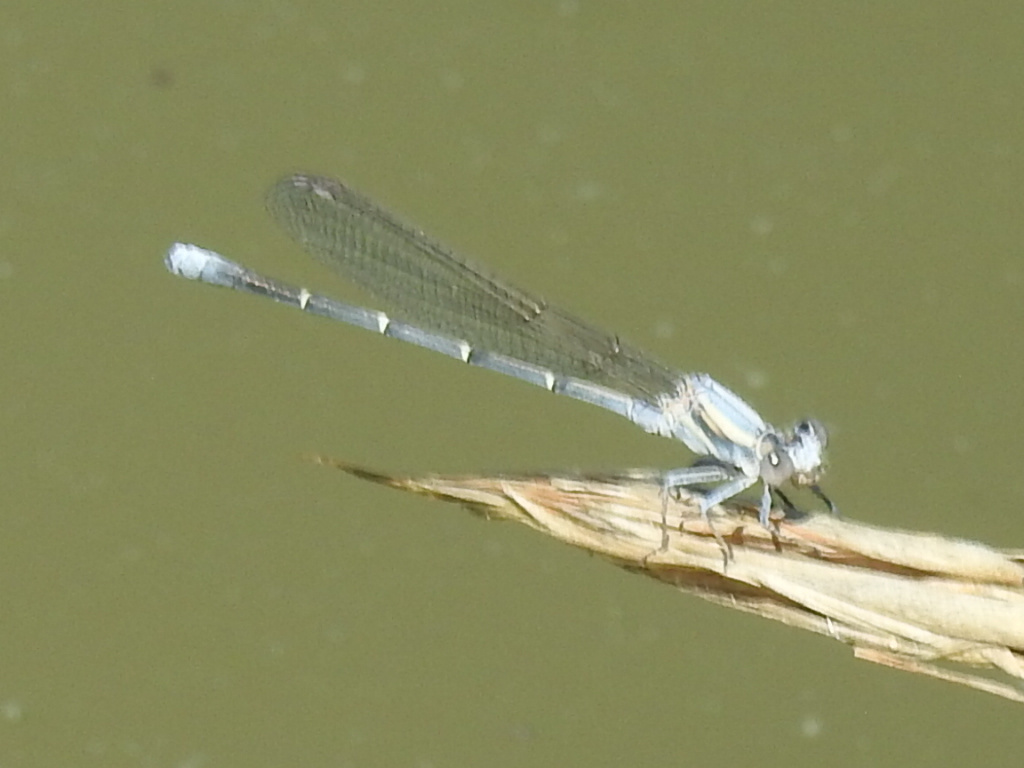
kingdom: Animalia
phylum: Arthropoda
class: Insecta
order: Odonata
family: Coenagrionidae
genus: Argia
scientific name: Argia moesta
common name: Powdered dancer
